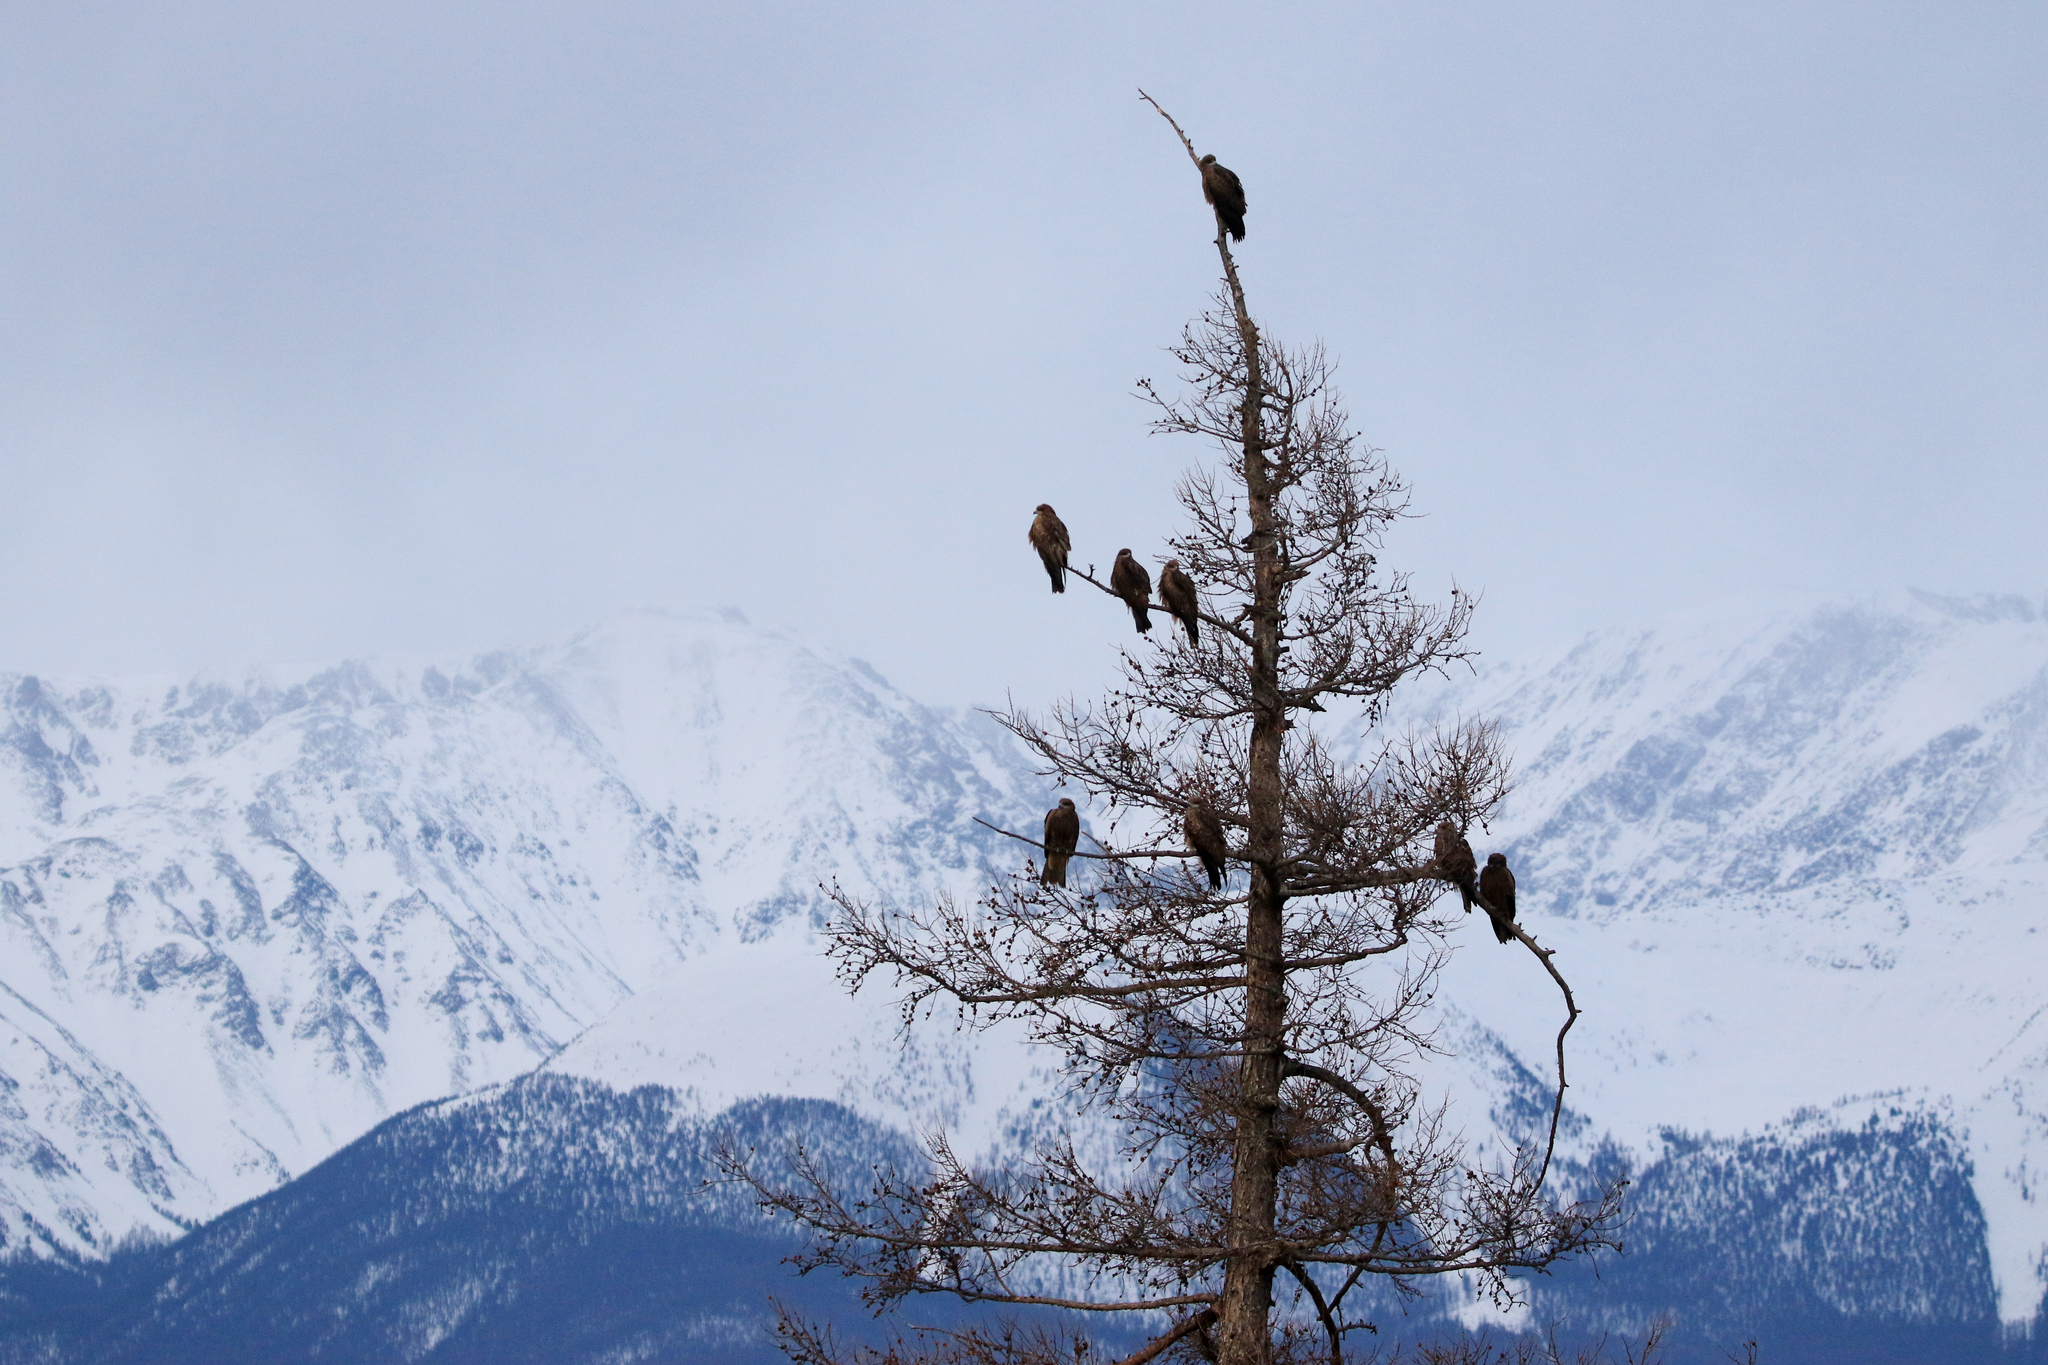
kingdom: Animalia
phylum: Chordata
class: Aves
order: Accipitriformes
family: Accipitridae
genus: Milvus
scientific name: Milvus migrans
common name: Black kite
